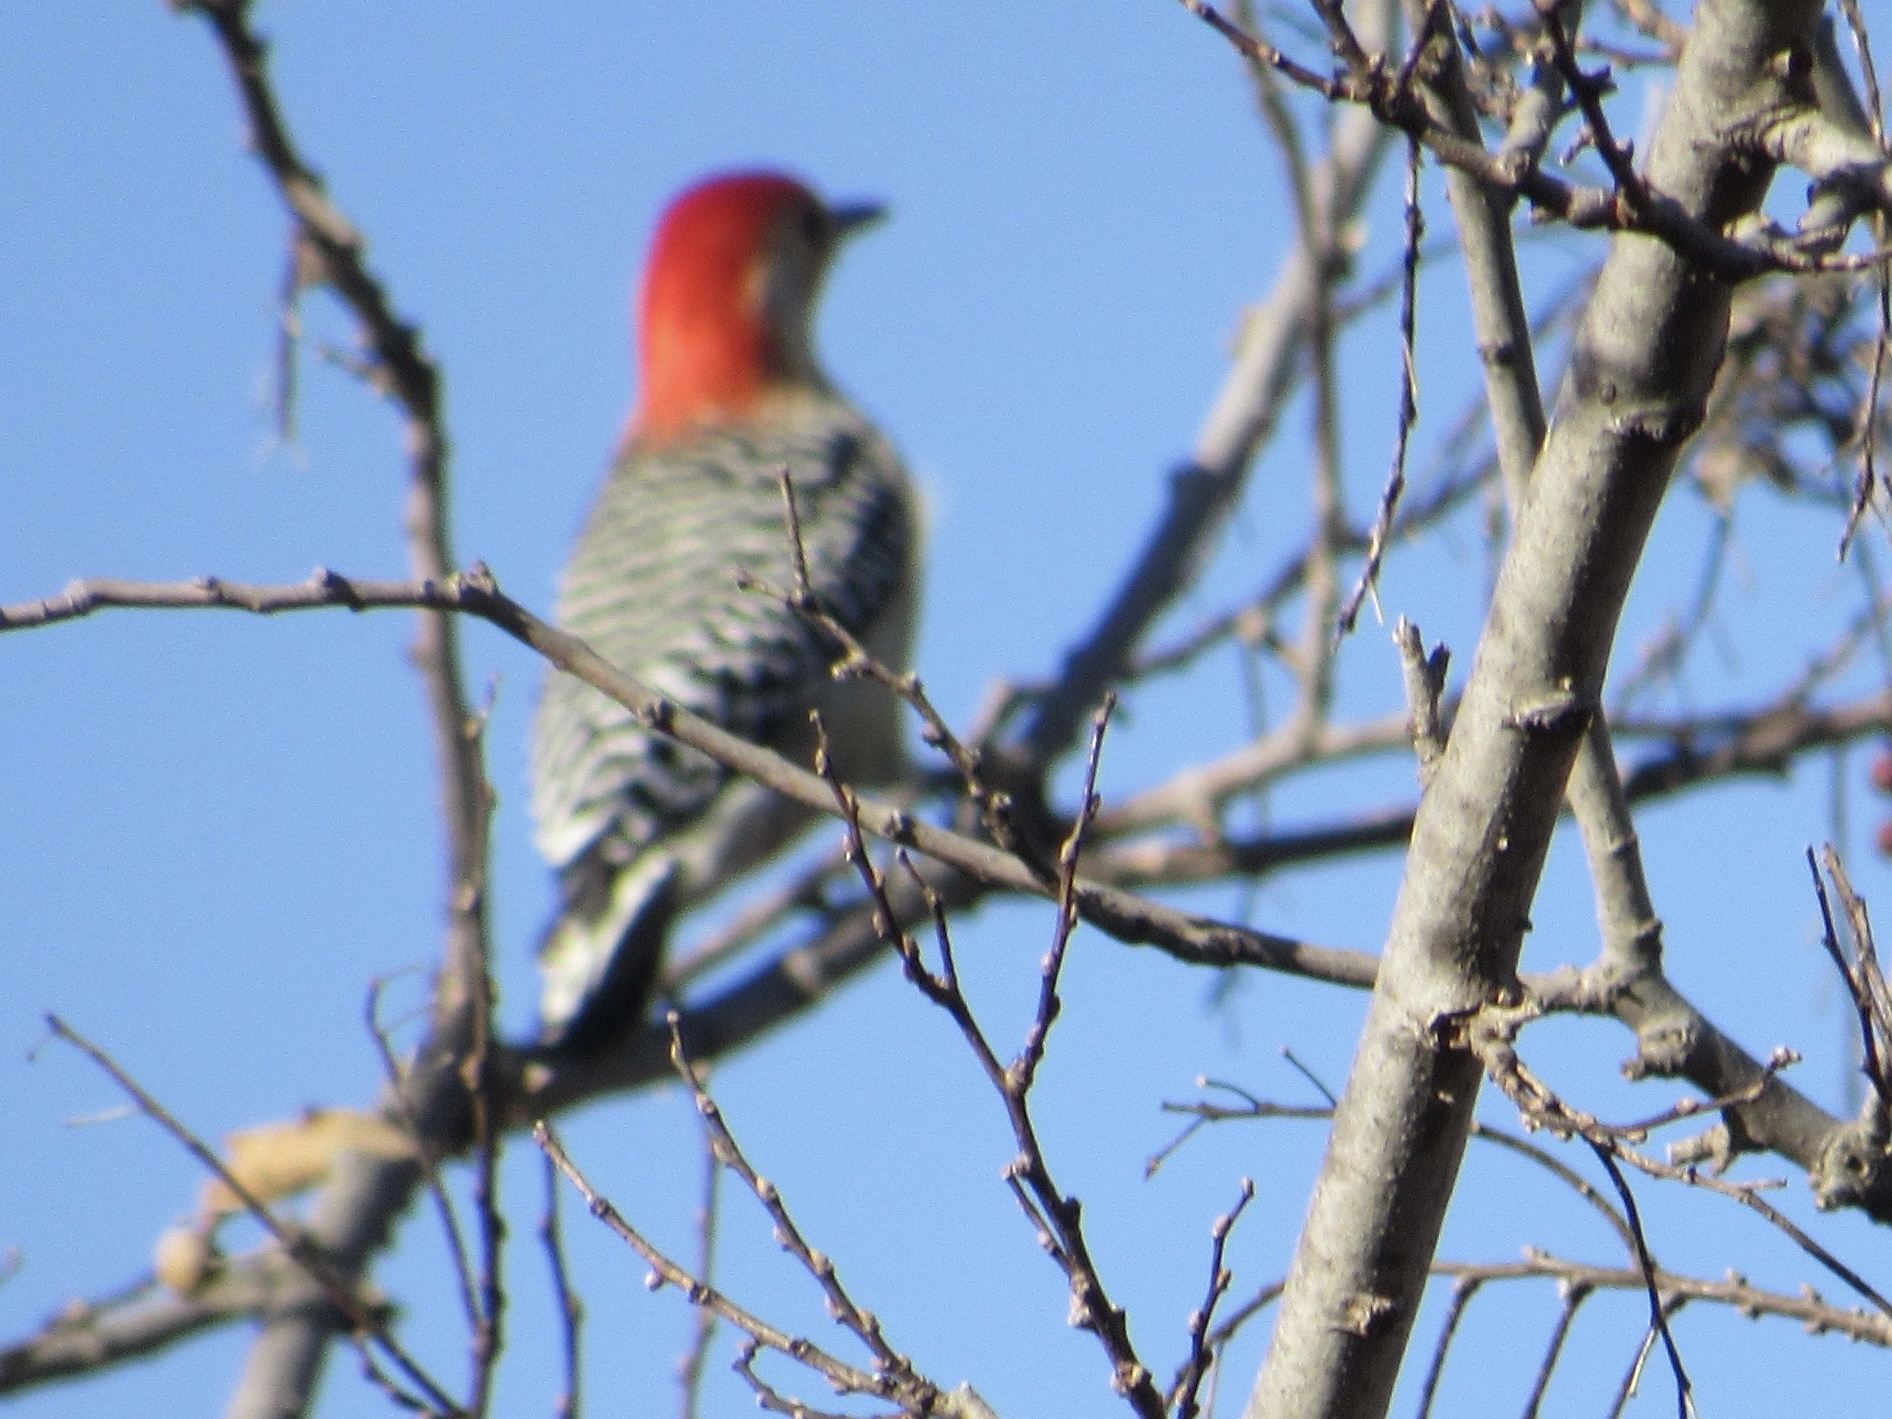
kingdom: Animalia
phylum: Chordata
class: Aves
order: Piciformes
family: Picidae
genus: Melanerpes
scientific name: Melanerpes carolinus
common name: Red-bellied woodpecker
